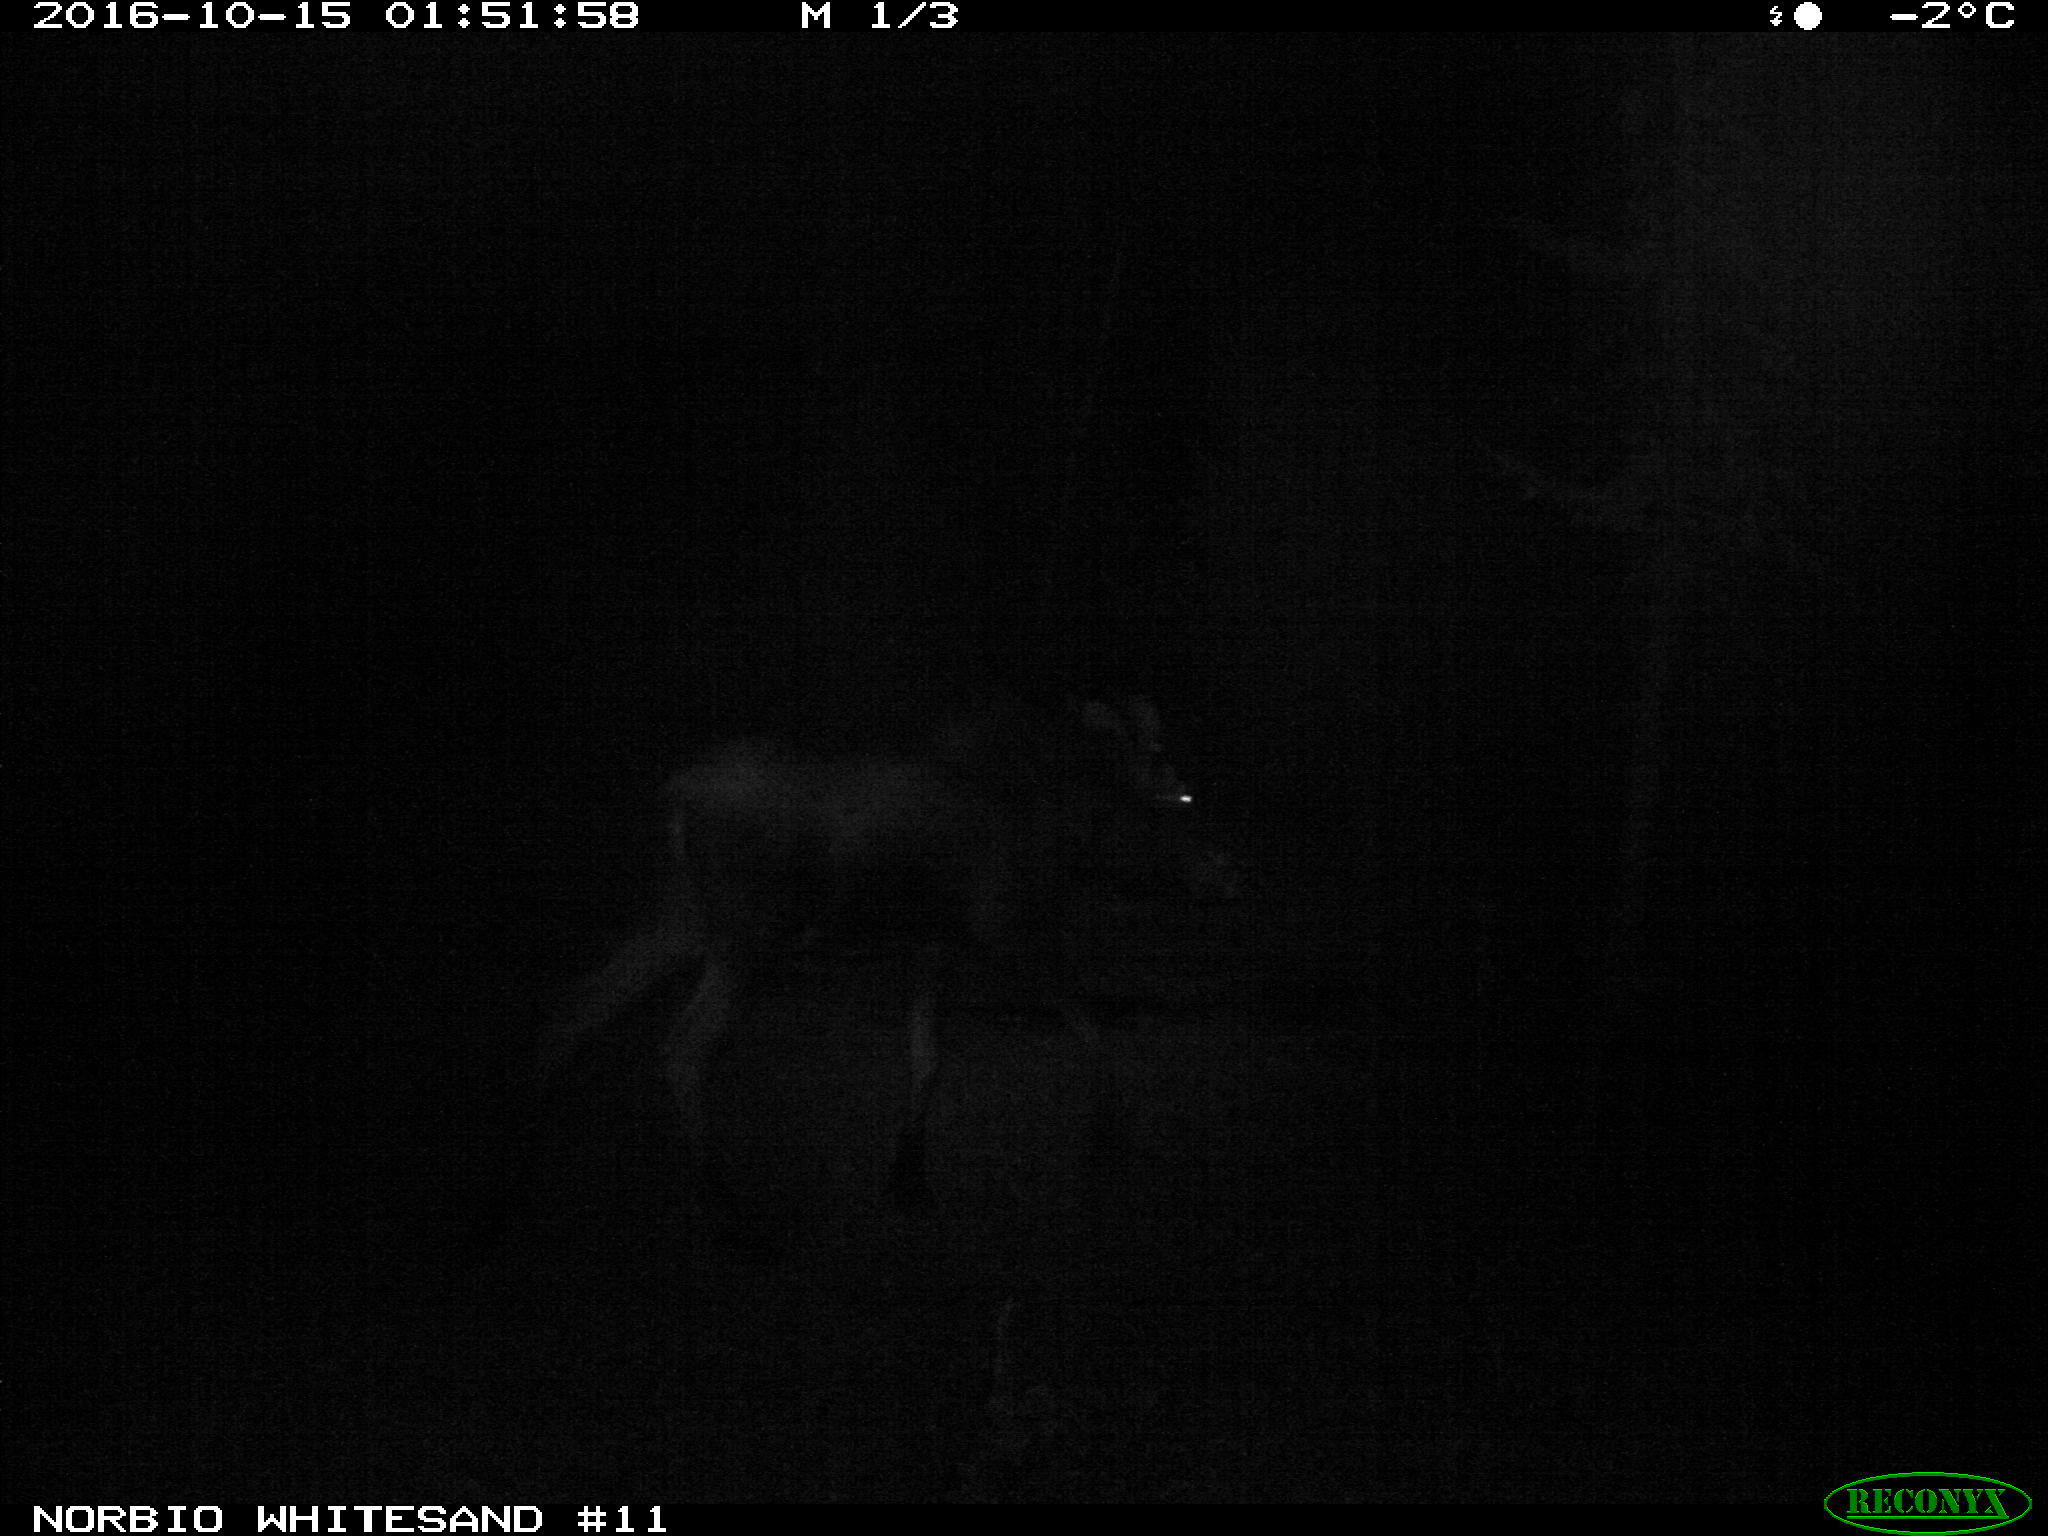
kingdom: Animalia
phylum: Chordata
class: Mammalia
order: Artiodactyla
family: Cervidae
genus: Alces
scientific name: Alces alces
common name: Moose
